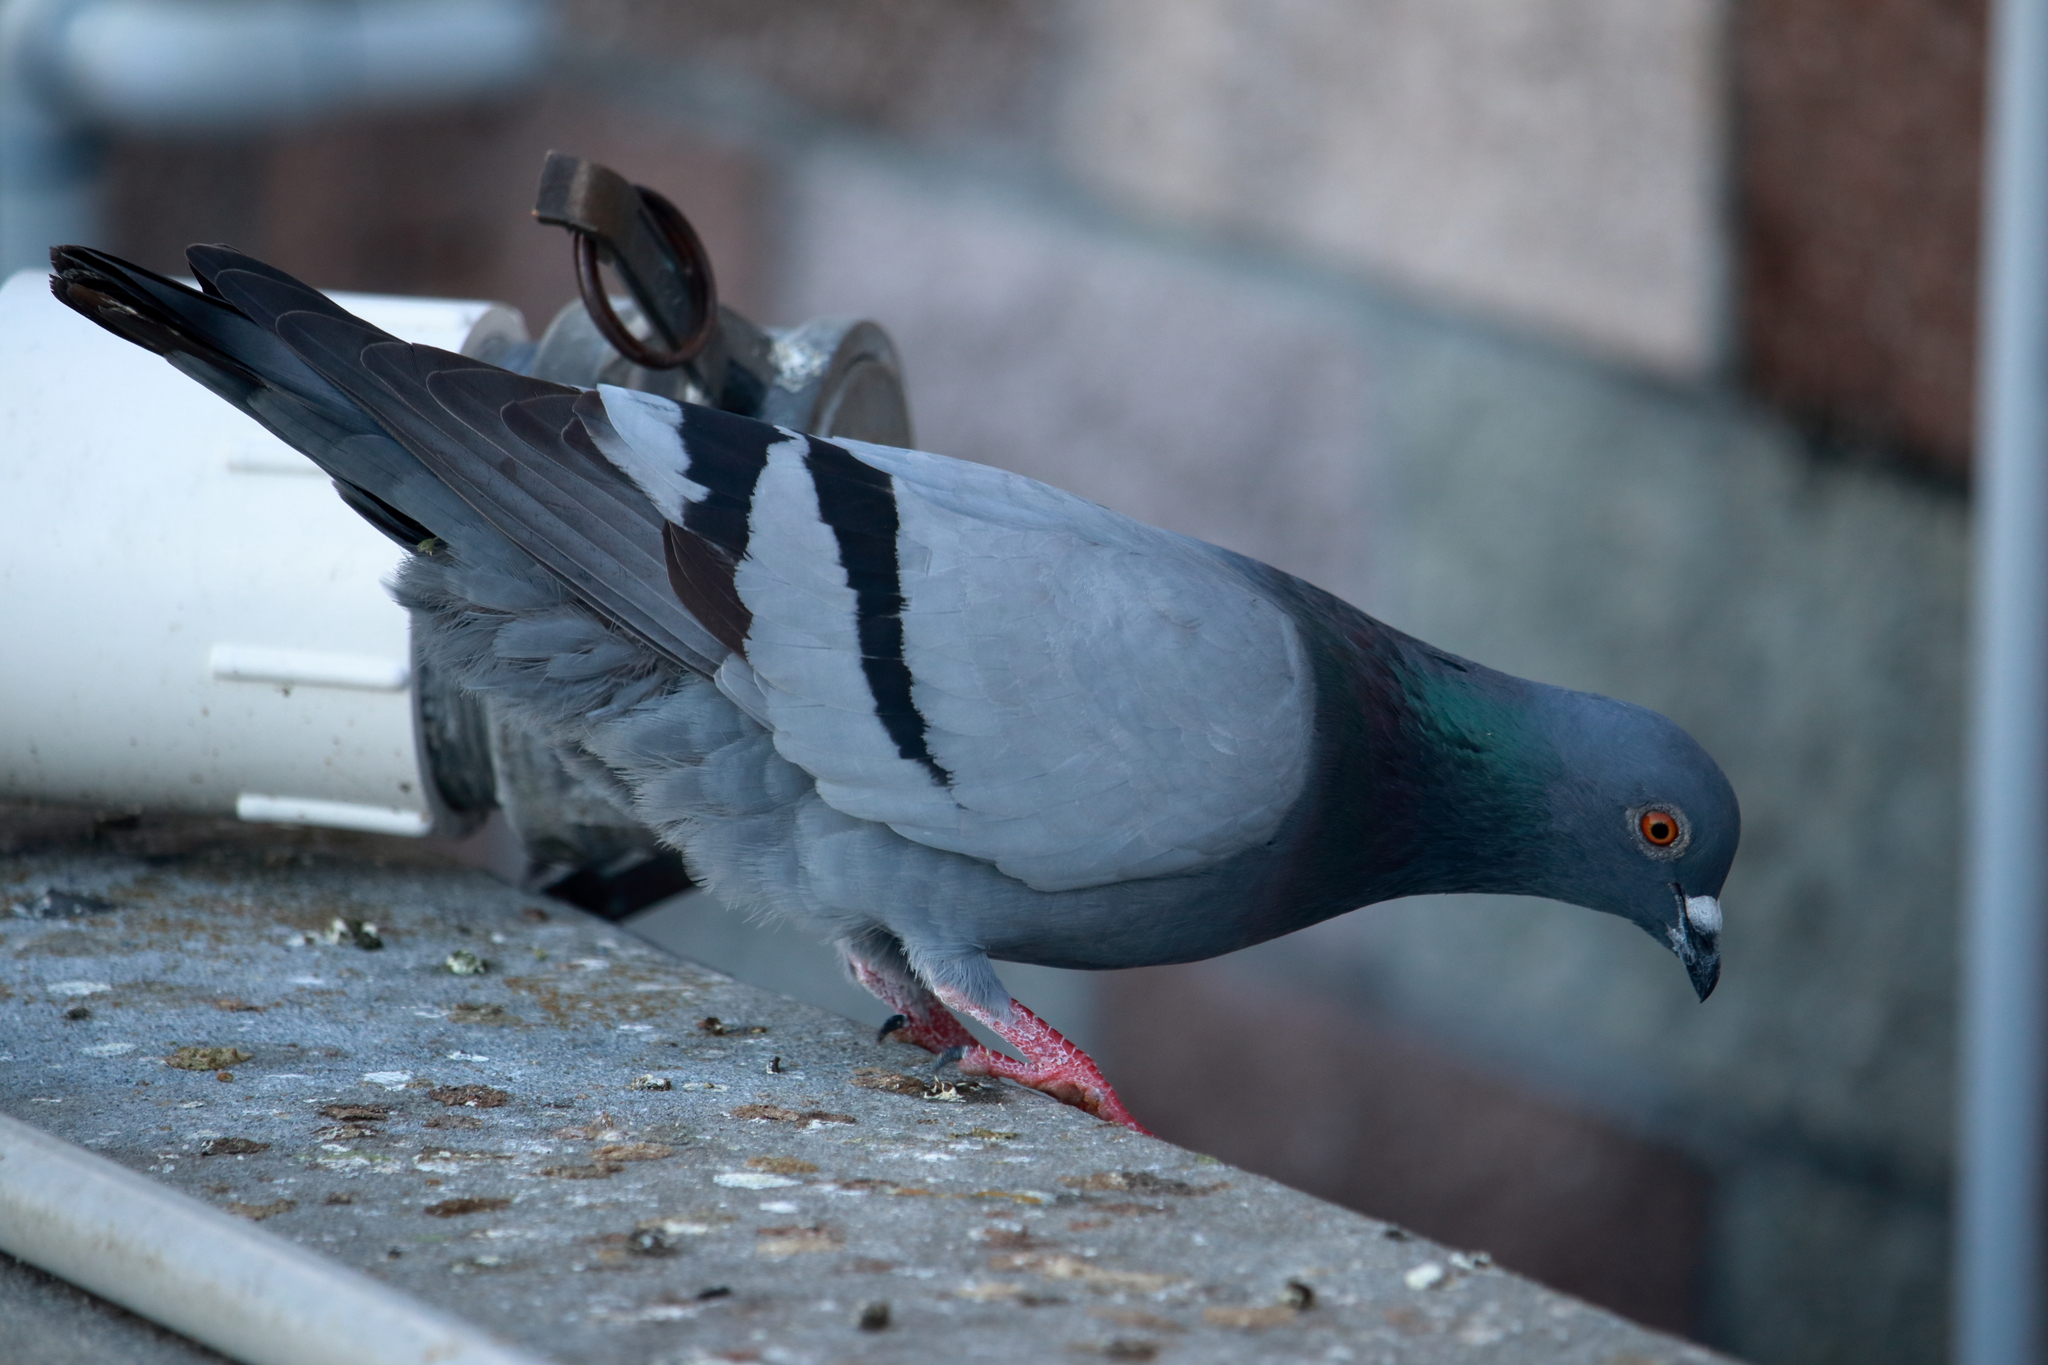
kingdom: Animalia
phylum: Chordata
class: Aves
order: Columbiformes
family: Columbidae
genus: Columba
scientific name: Columba livia
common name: Rock pigeon
